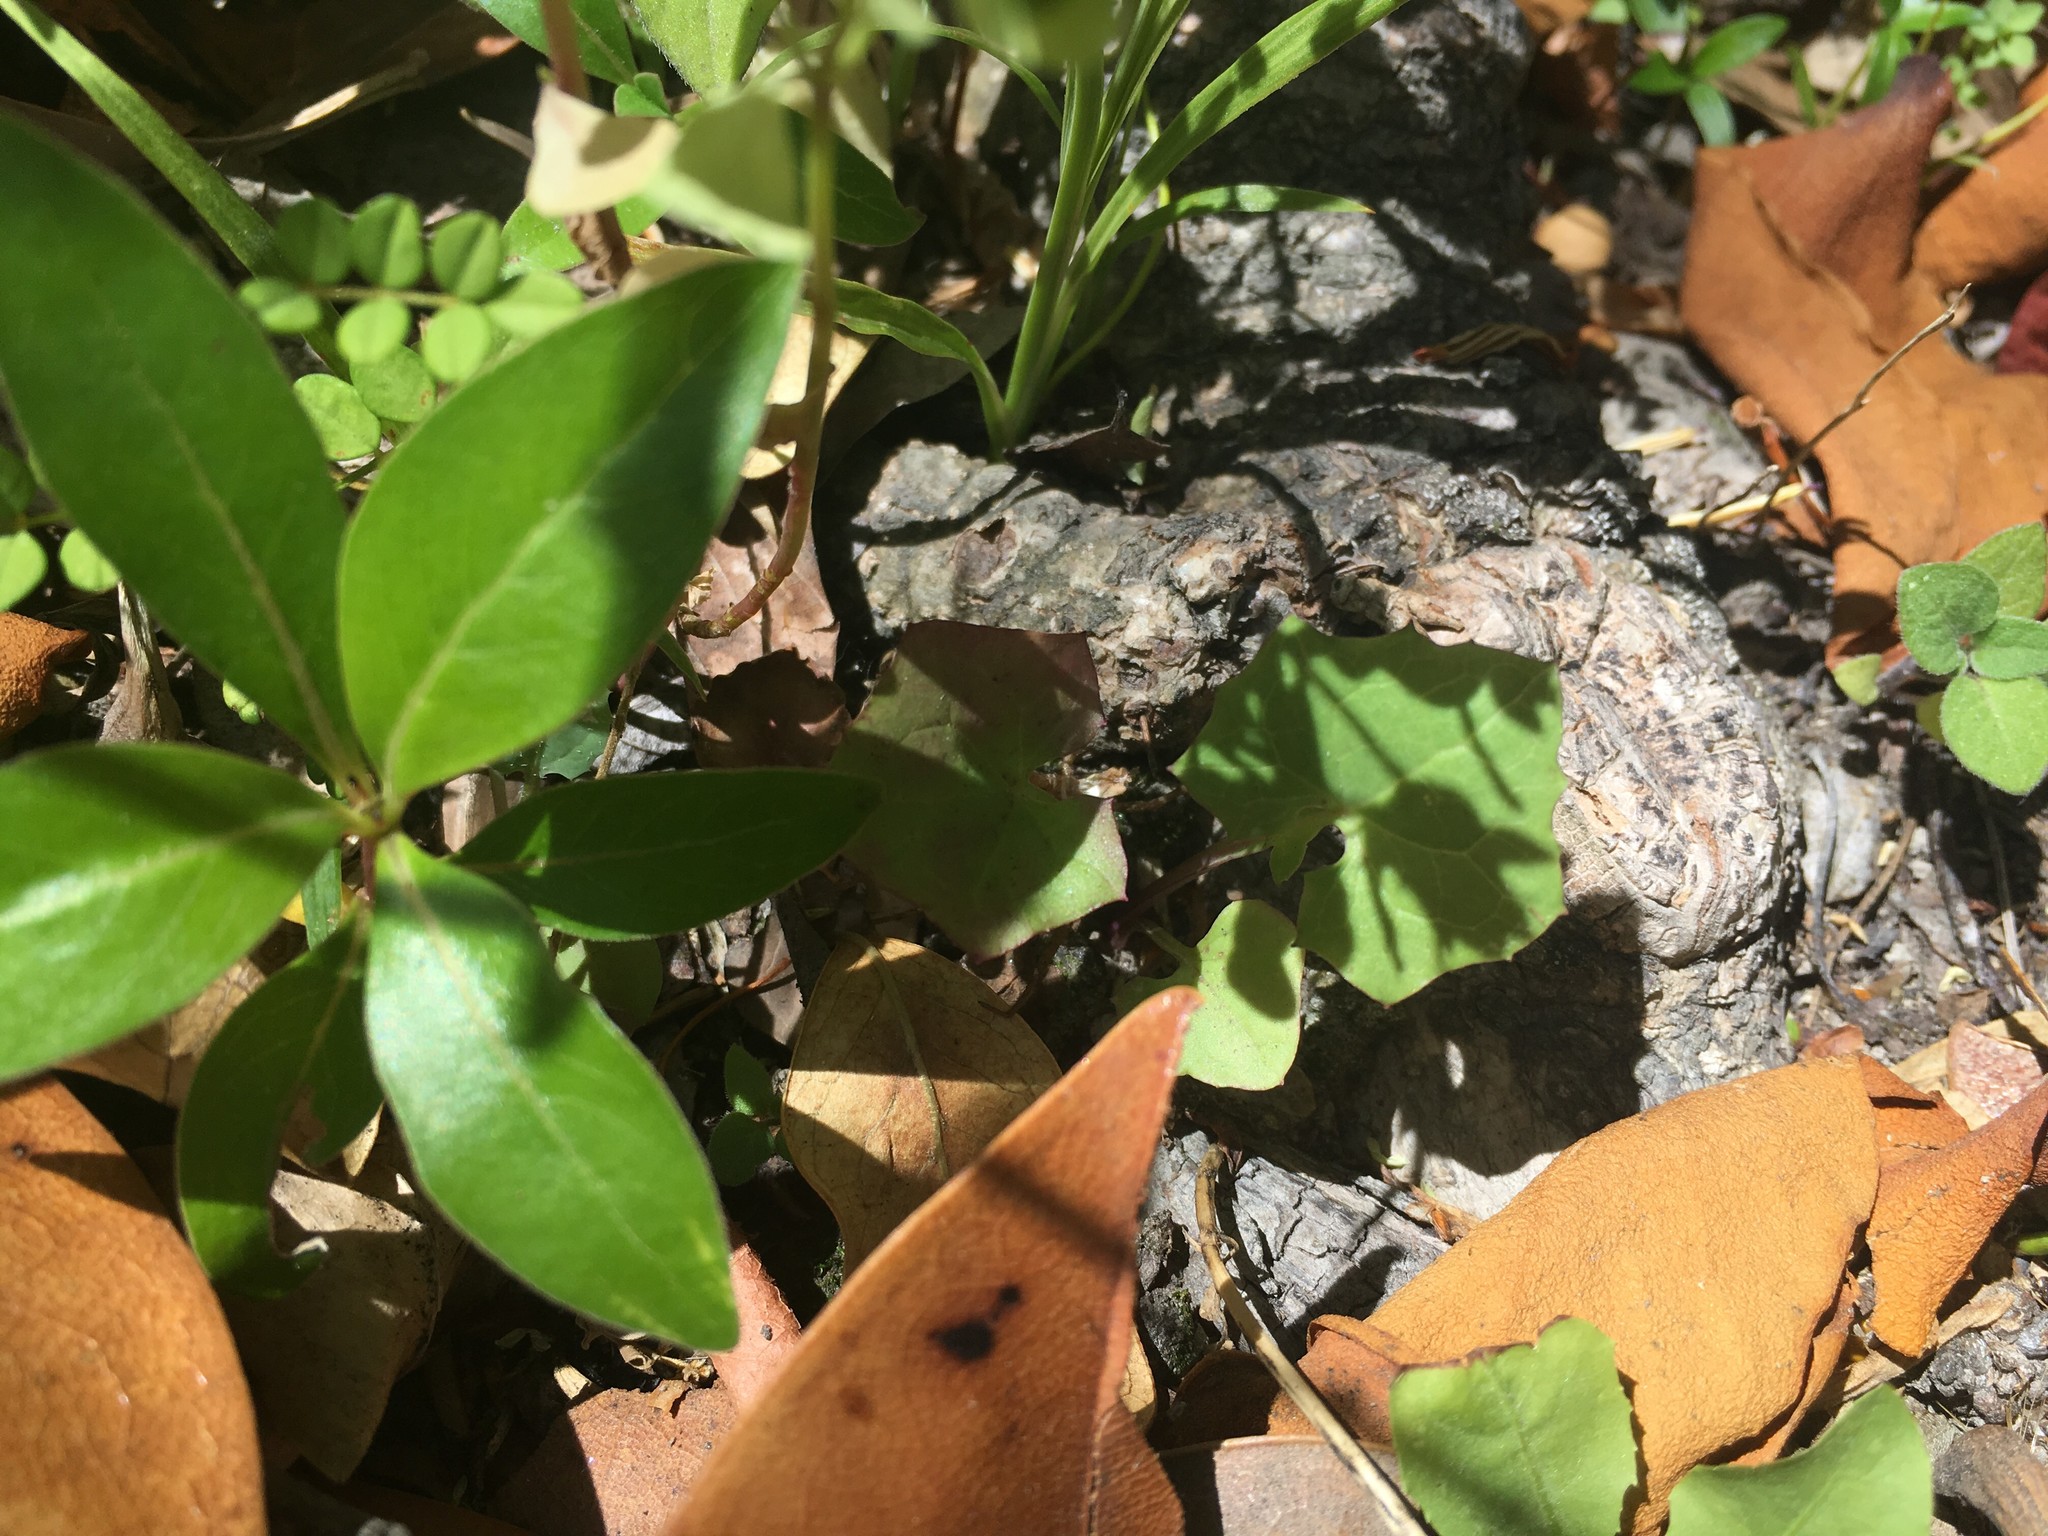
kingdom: Plantae
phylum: Tracheophyta
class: Magnoliopsida
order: Asterales
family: Asteraceae
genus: Mycelis
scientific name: Mycelis muralis
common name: Wall lettuce
